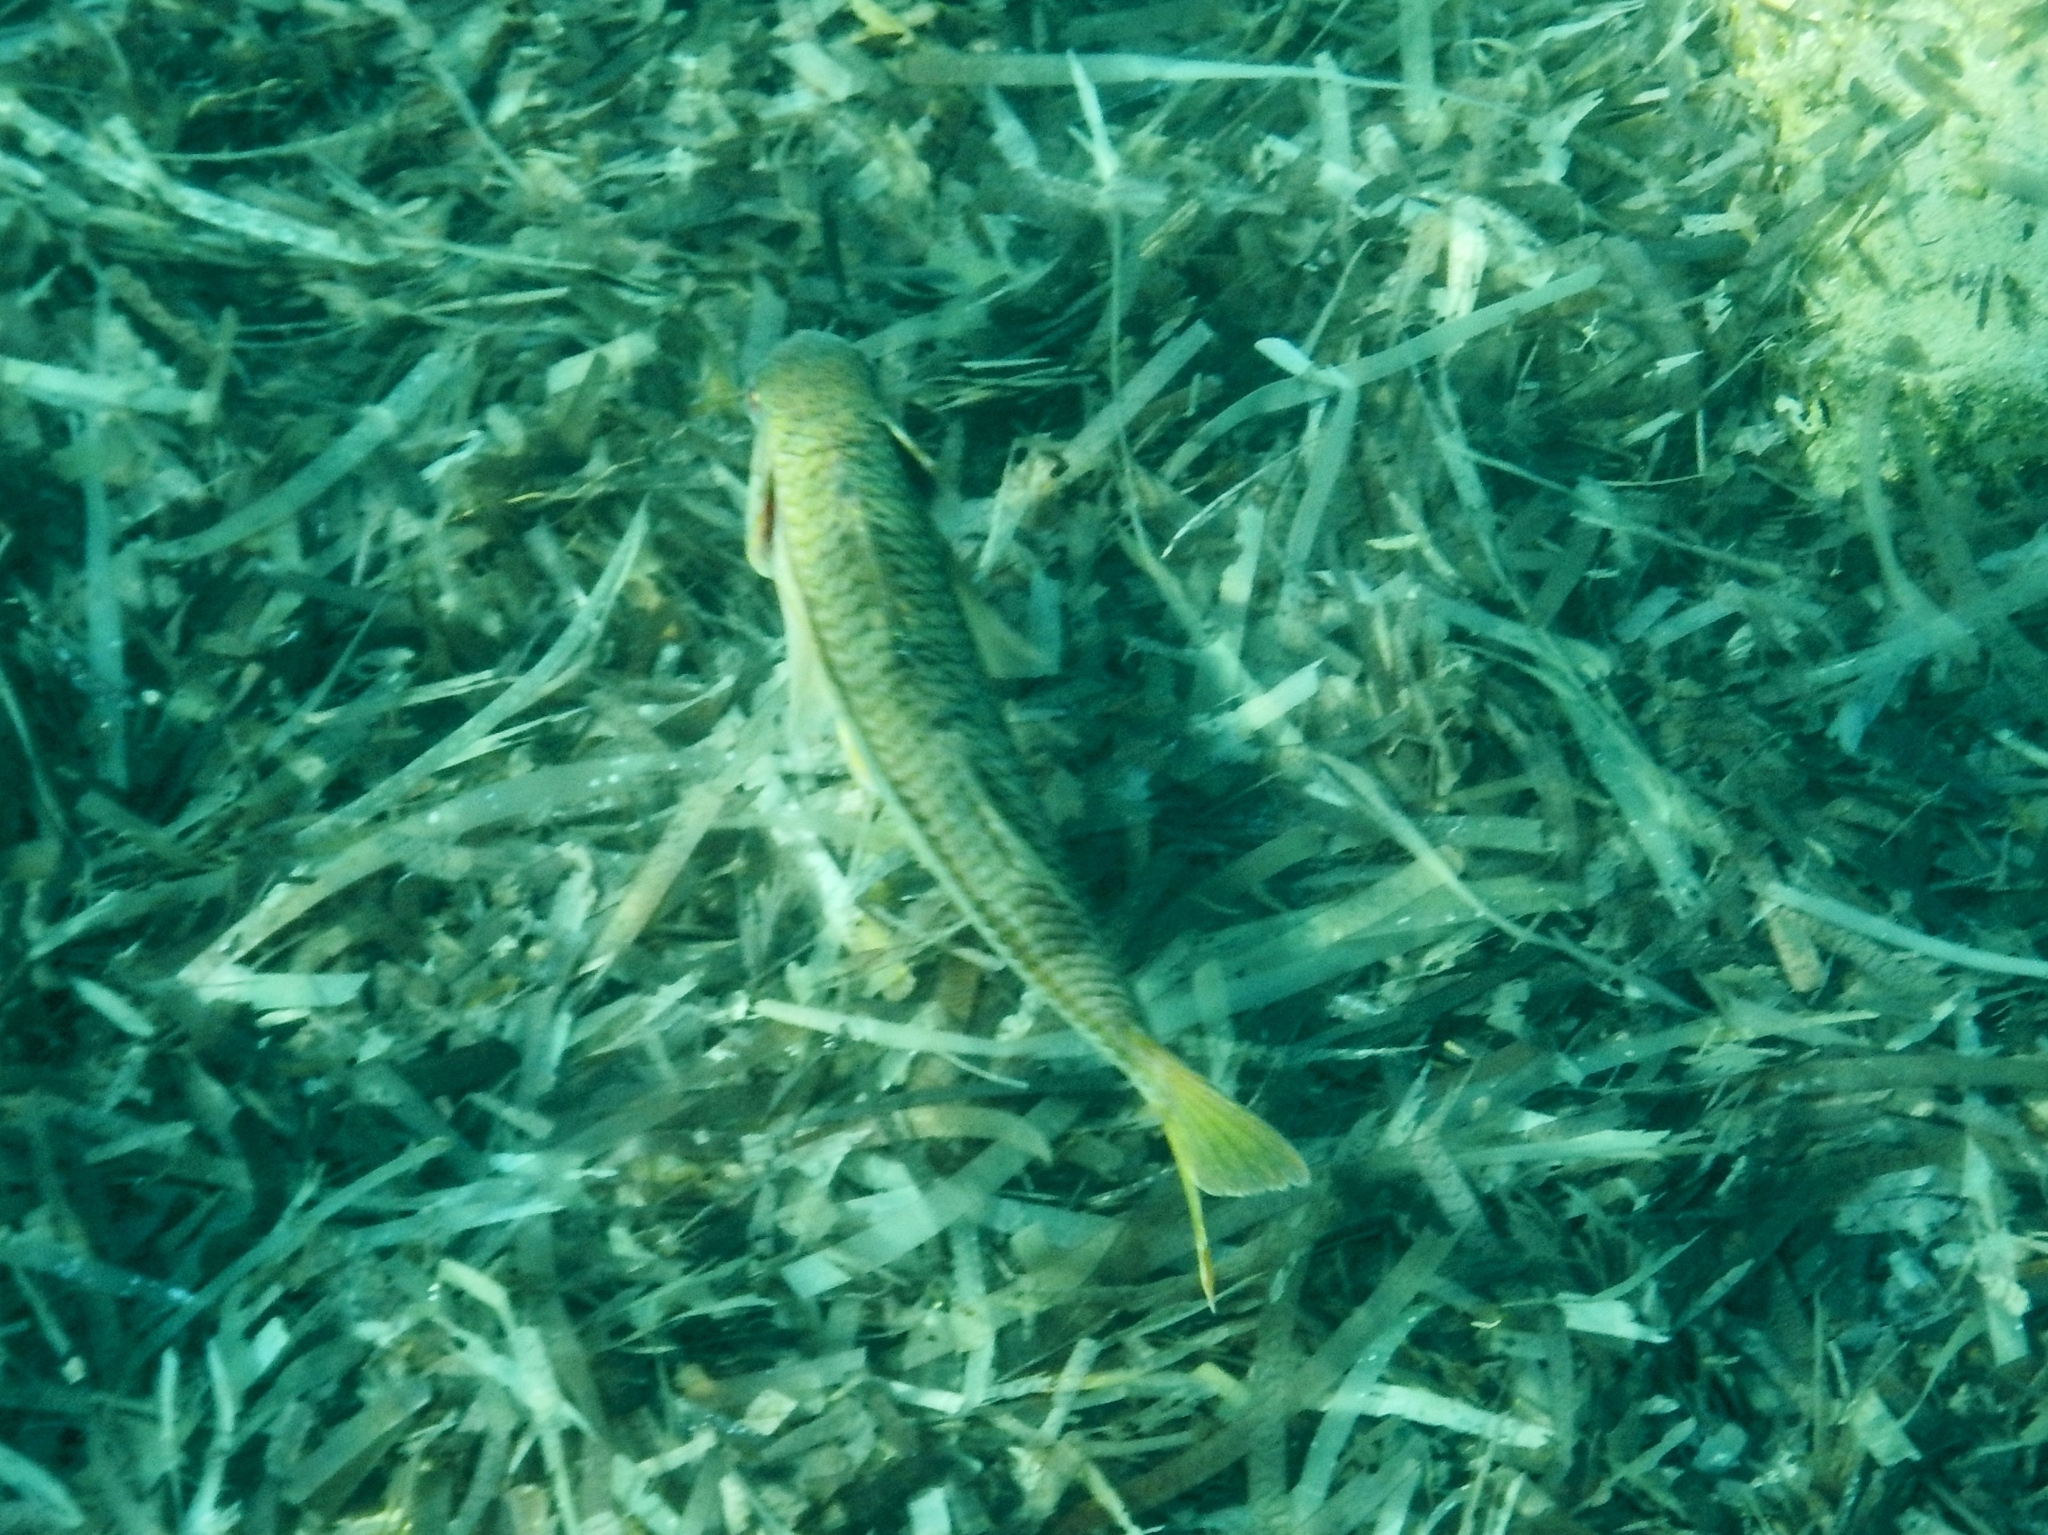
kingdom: Animalia
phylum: Chordata
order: Perciformes
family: Mullidae
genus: Mullus
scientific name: Mullus surmuletus
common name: Red mullet
